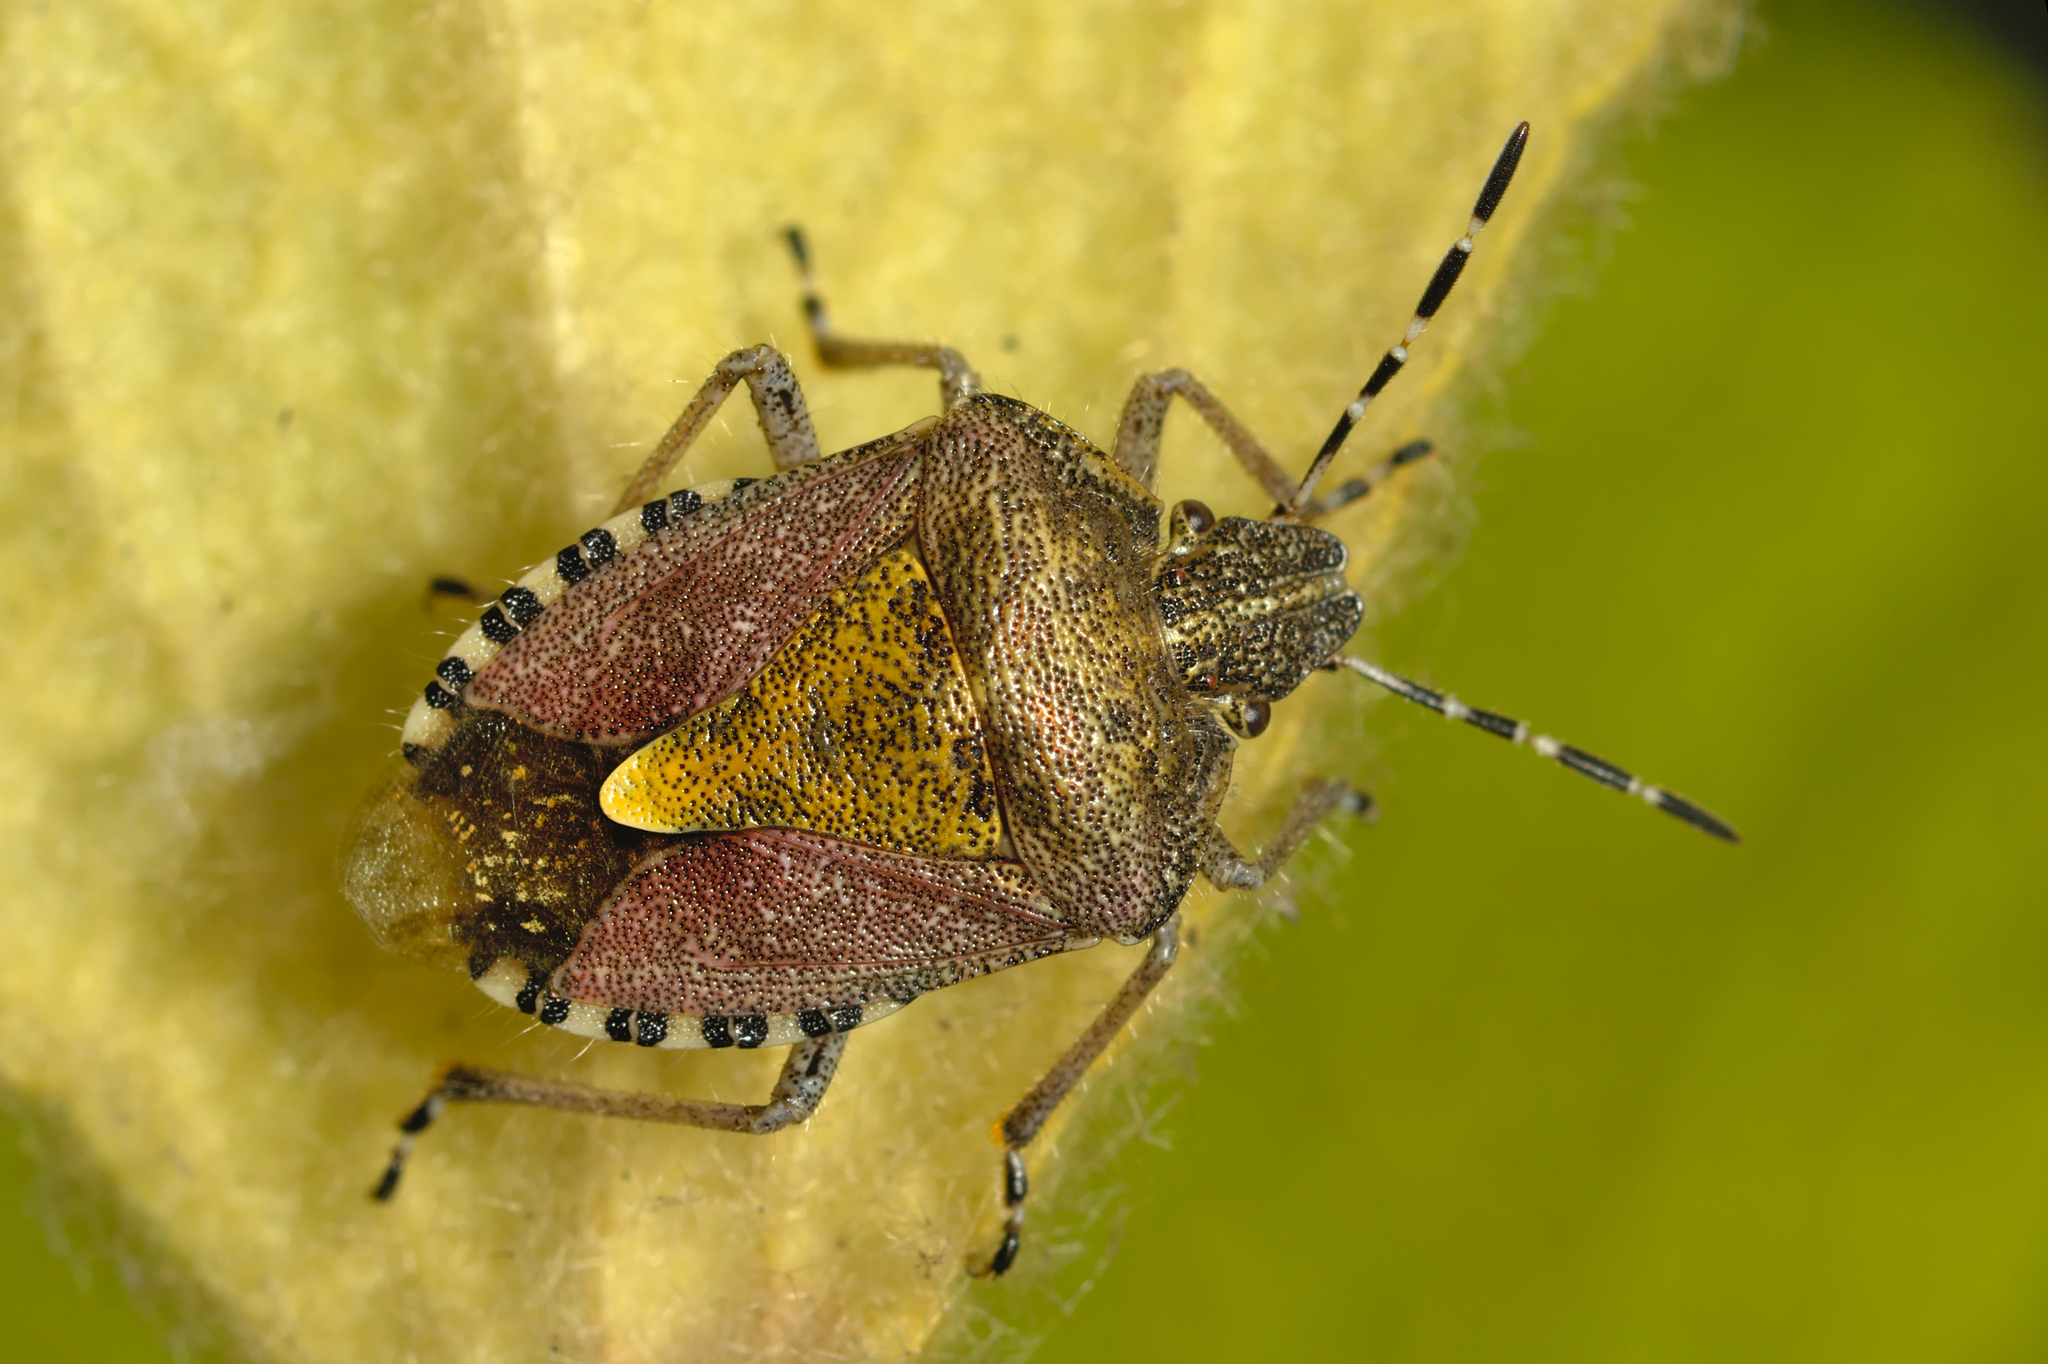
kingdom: Animalia
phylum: Arthropoda
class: Insecta
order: Hemiptera
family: Pentatomidae
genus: Dolycoris
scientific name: Dolycoris baccarum
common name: Sloe bug
